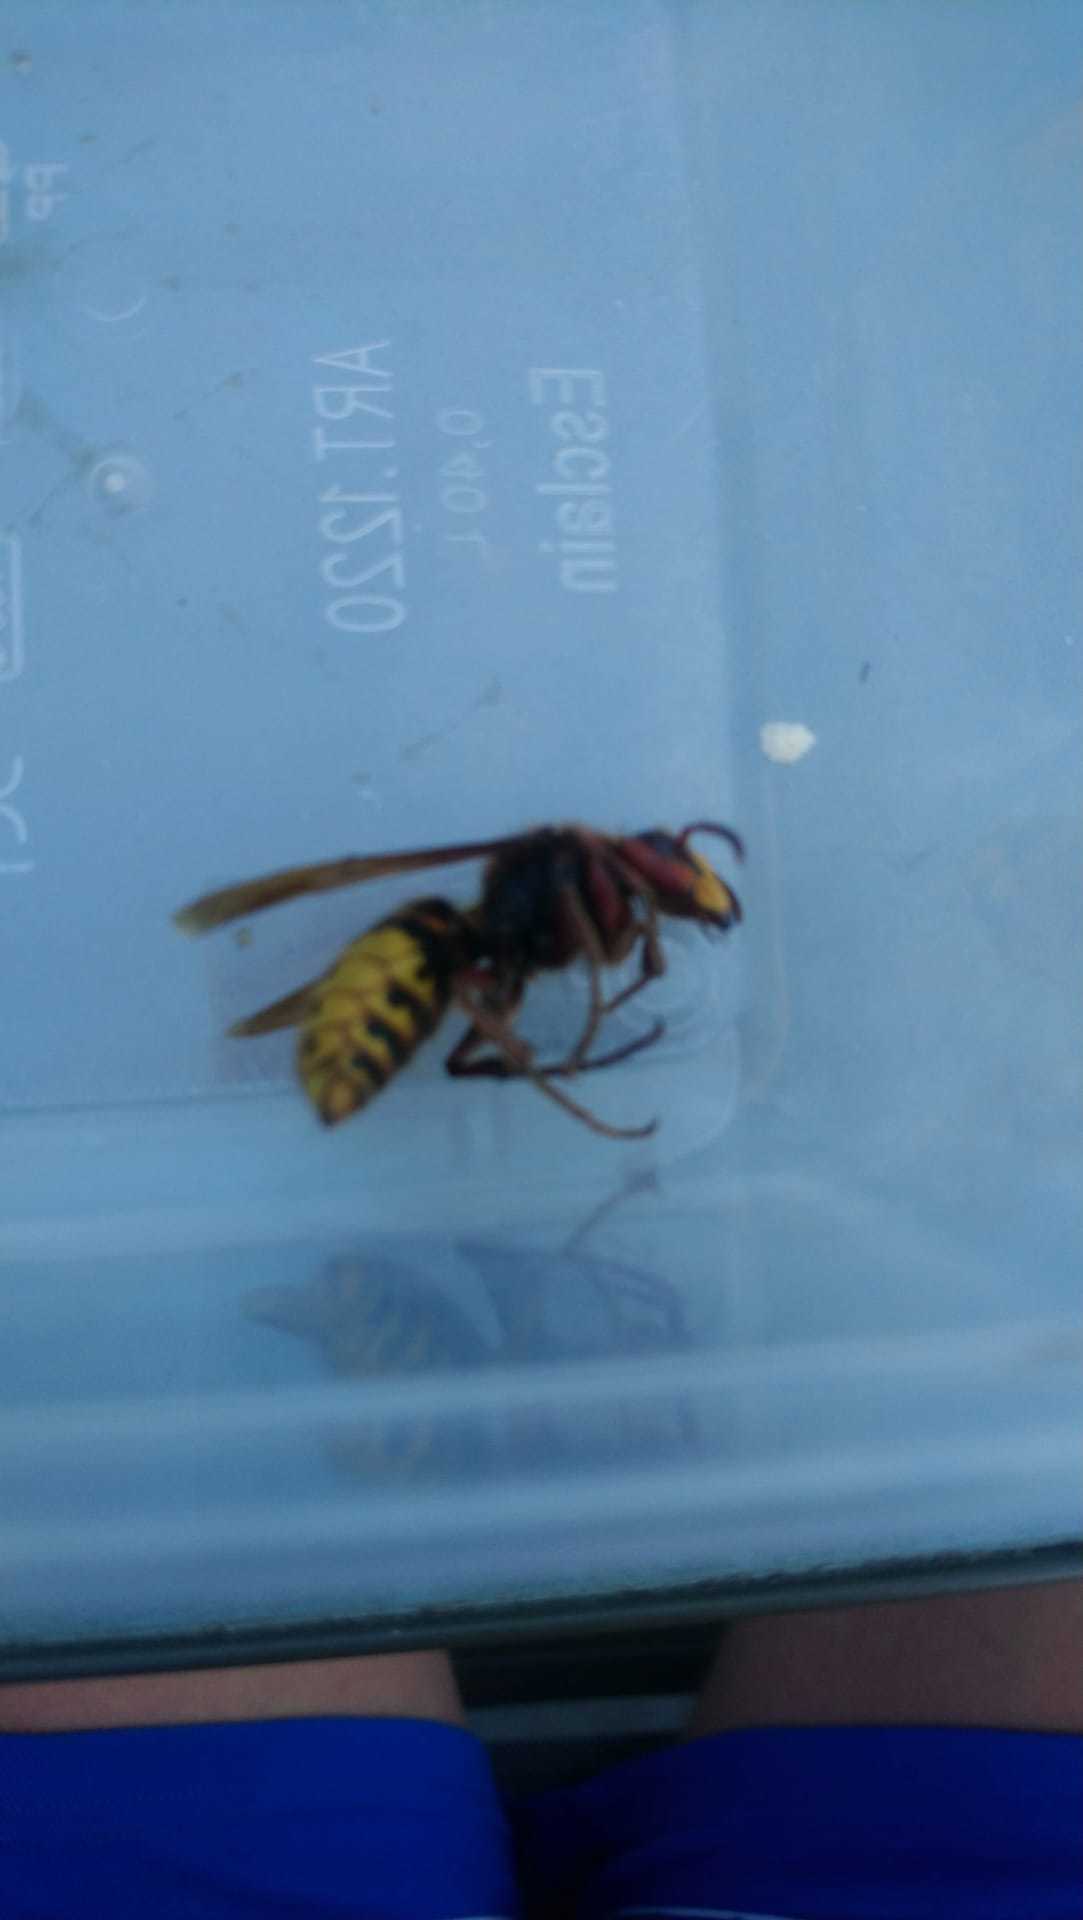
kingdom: Animalia
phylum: Arthropoda
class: Insecta
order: Hymenoptera
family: Vespidae
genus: Vespa
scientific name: Vespa crabro
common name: Hornet
